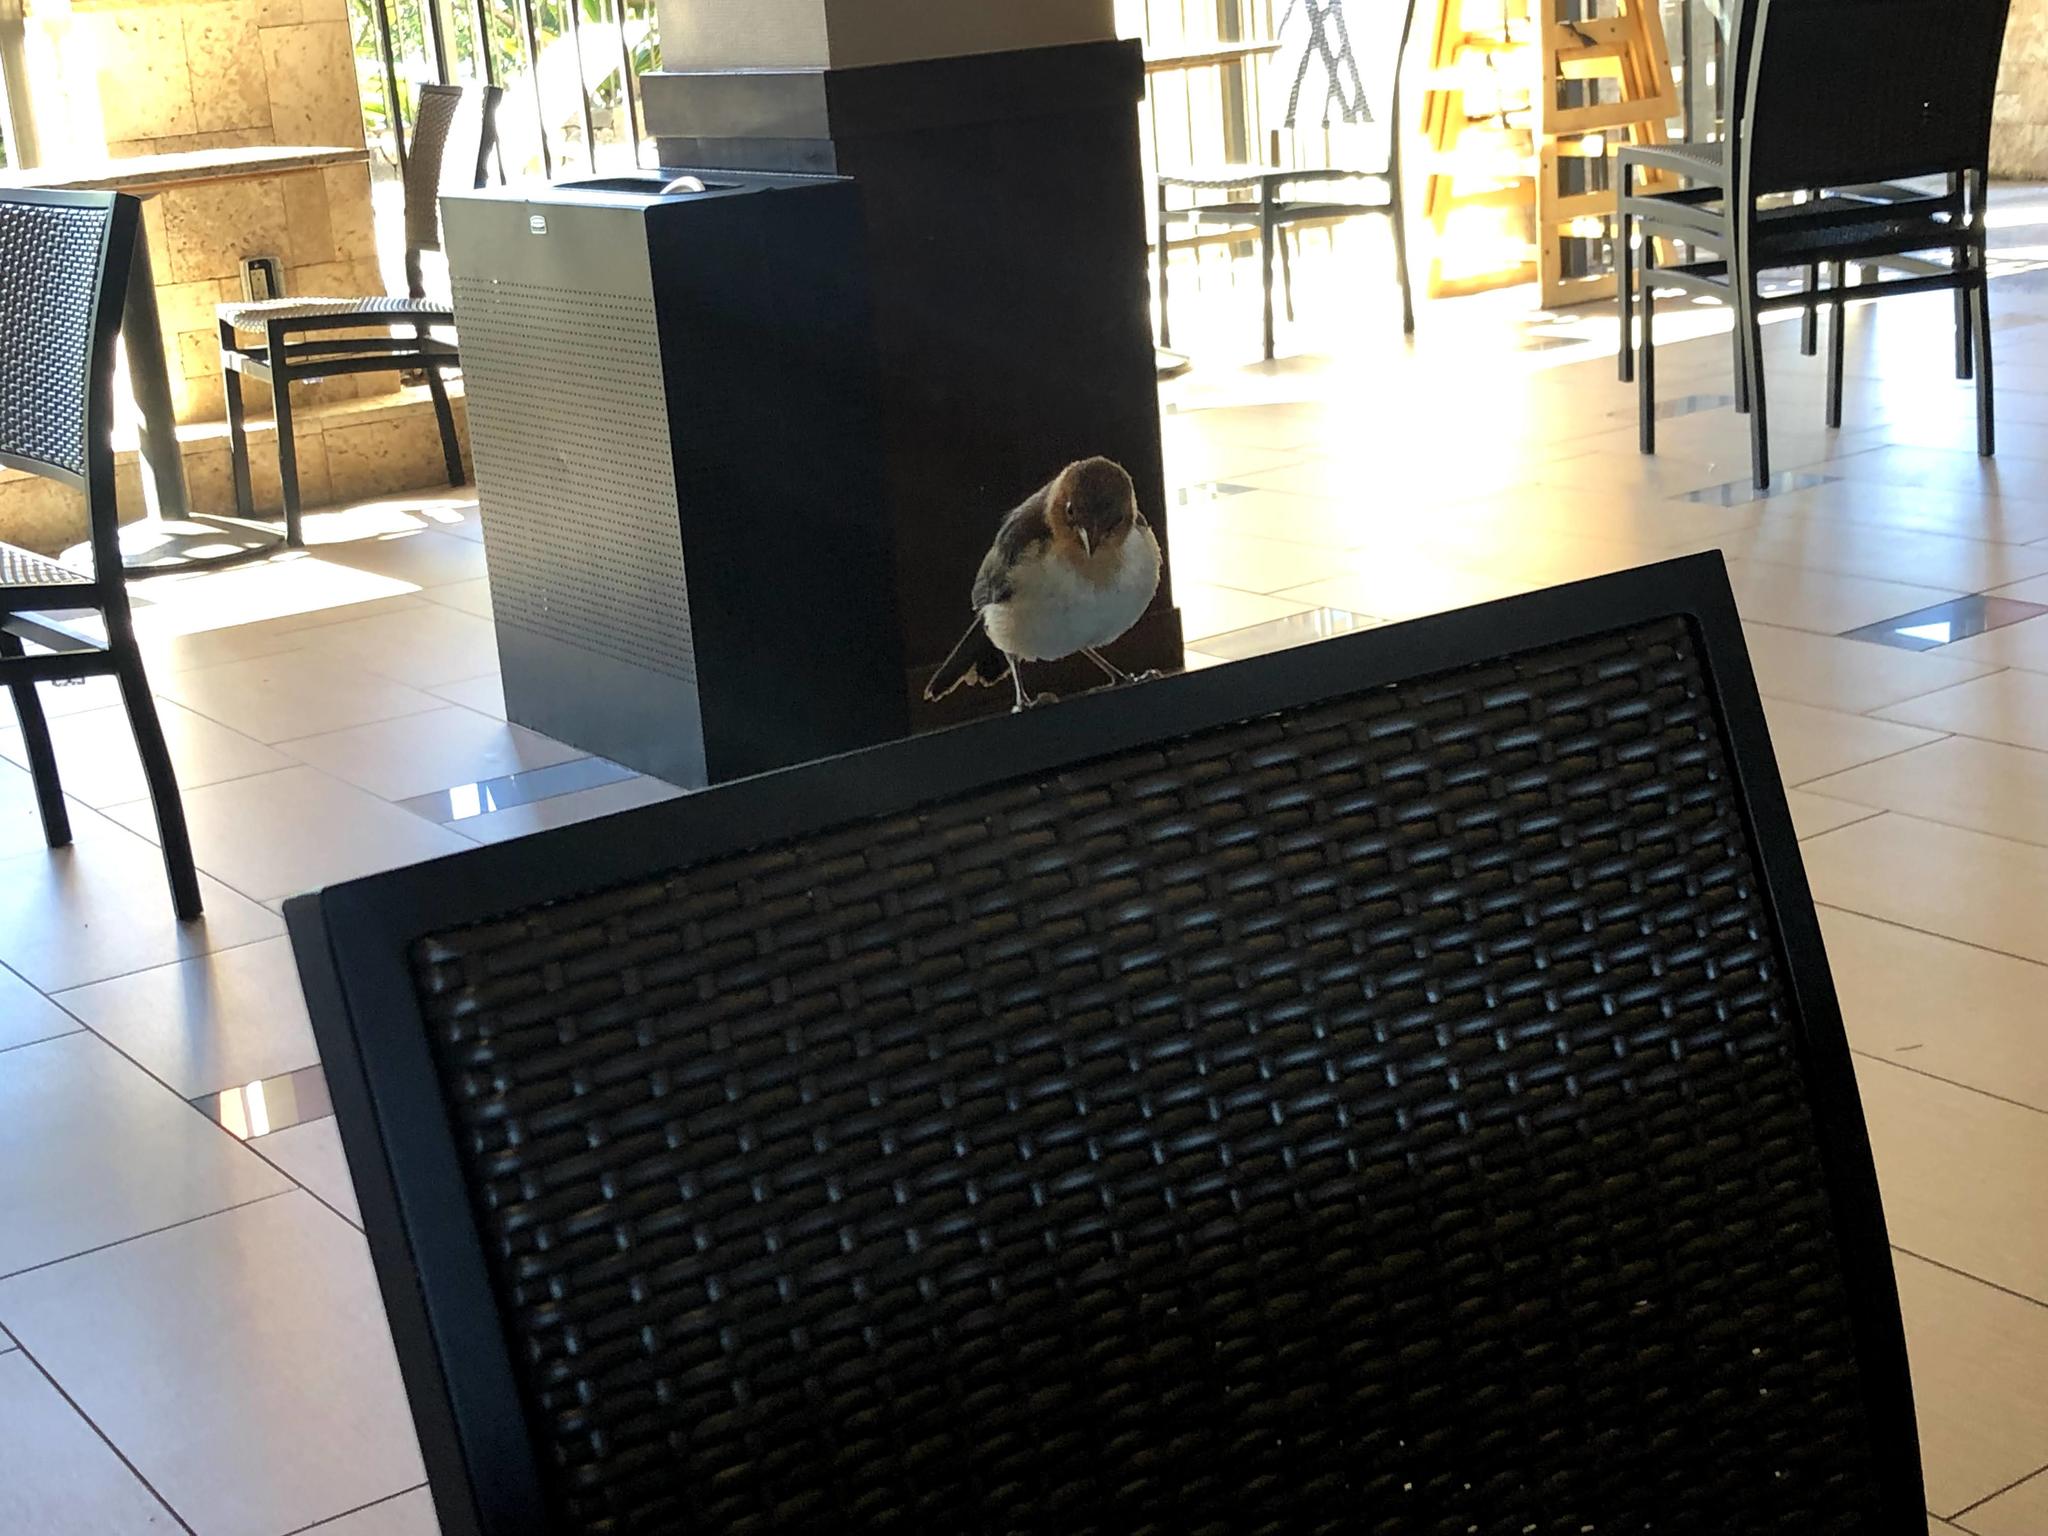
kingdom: Animalia
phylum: Chordata
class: Aves
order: Passeriformes
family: Thraupidae
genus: Paroaria
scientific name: Paroaria capitata
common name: Yellow-billed cardinal
